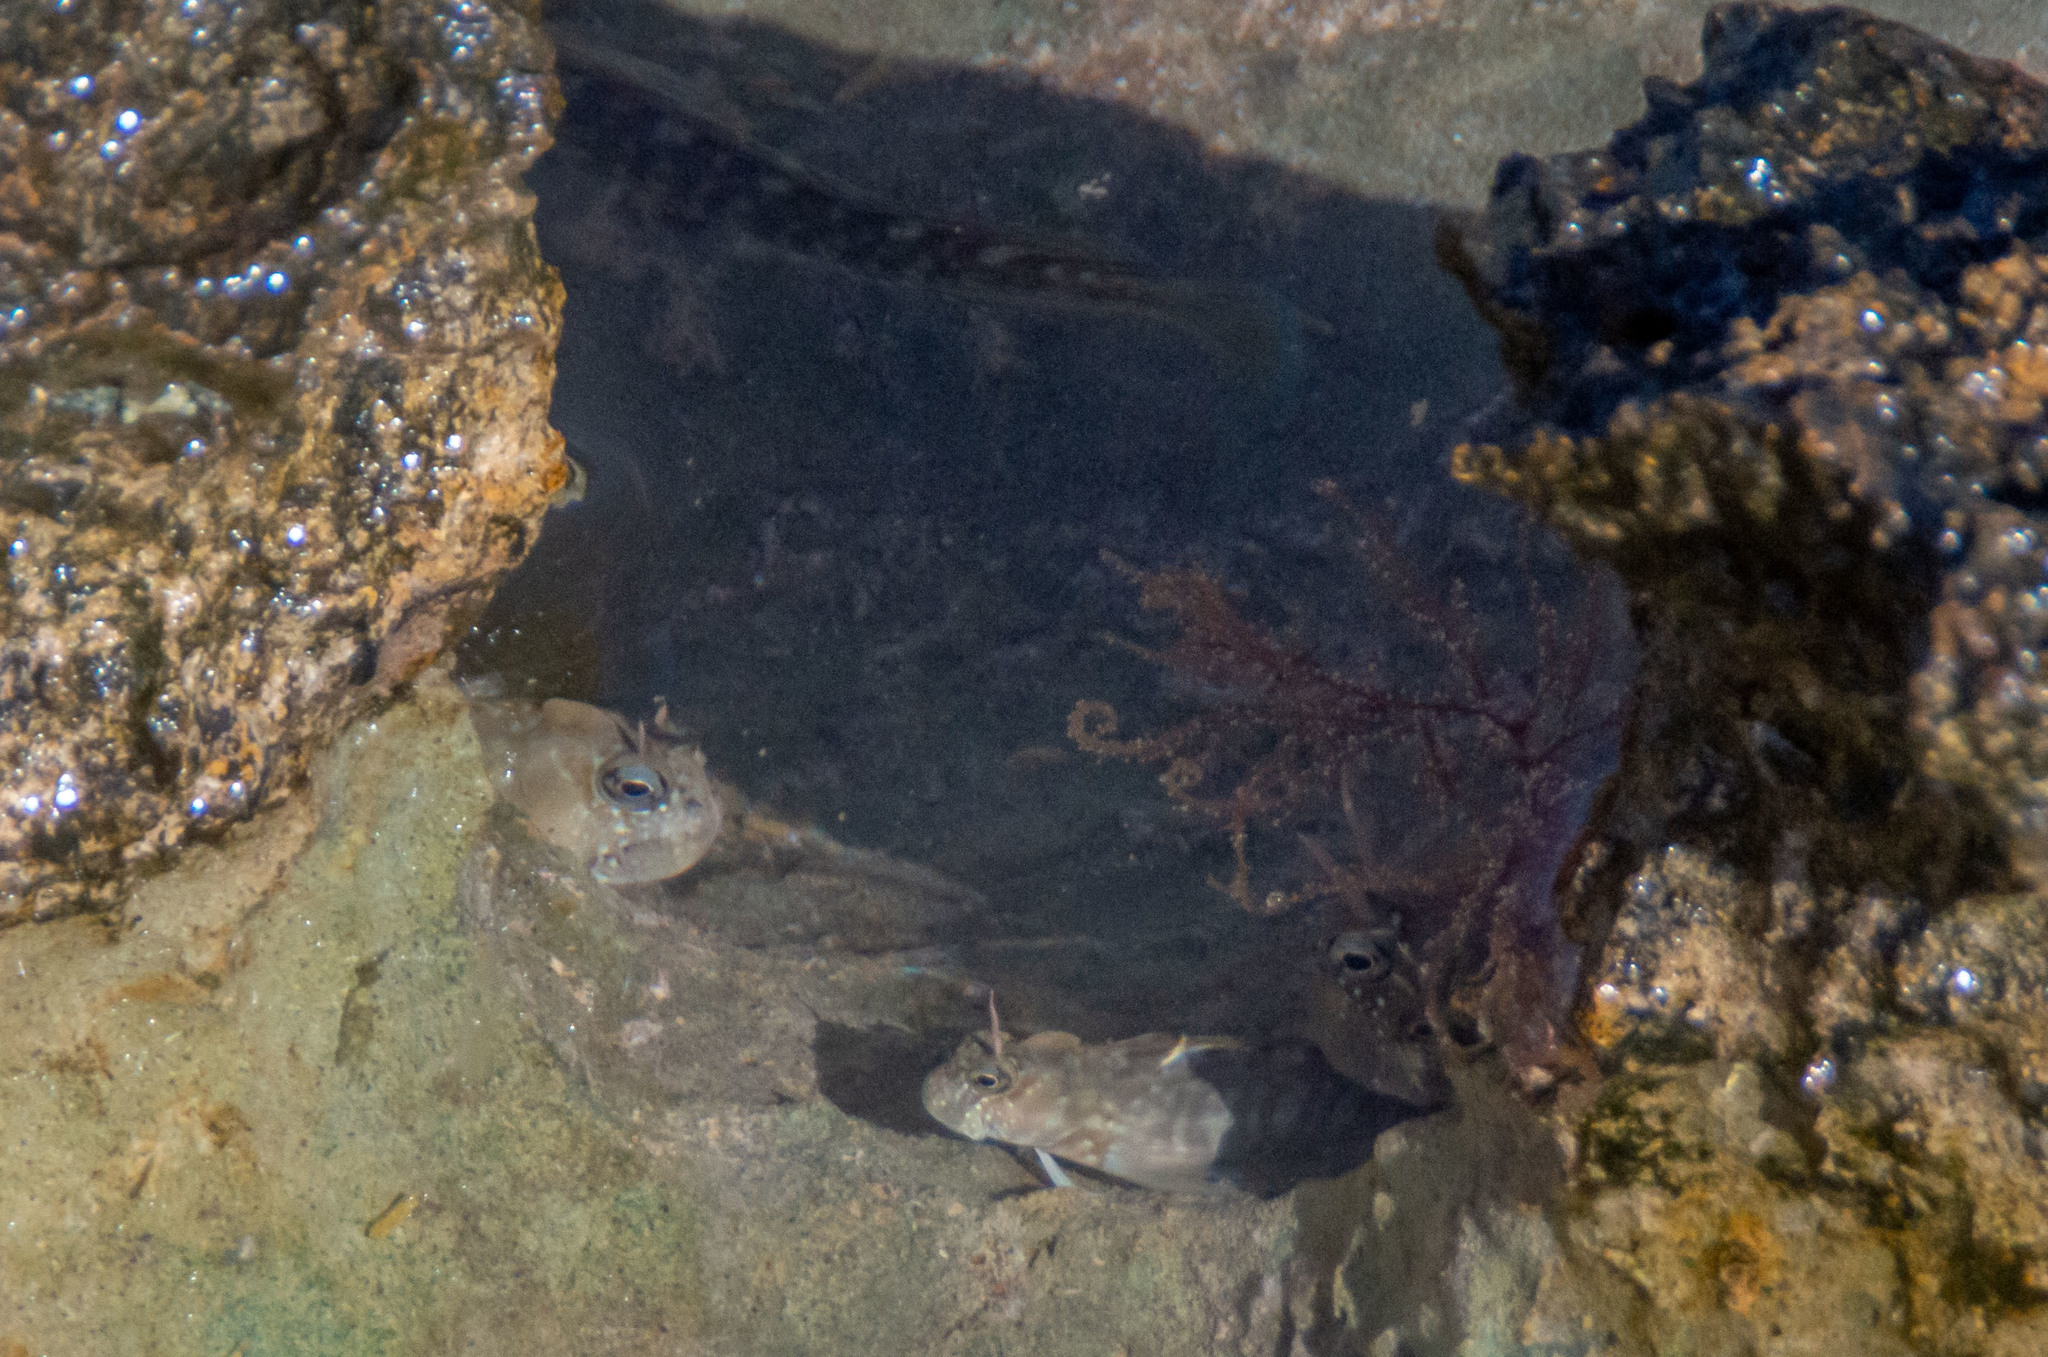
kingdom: Animalia
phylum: Chordata
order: Perciformes
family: Blenniidae
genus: Istiblennius
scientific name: Istiblennius zebra
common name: Zebra blenny
